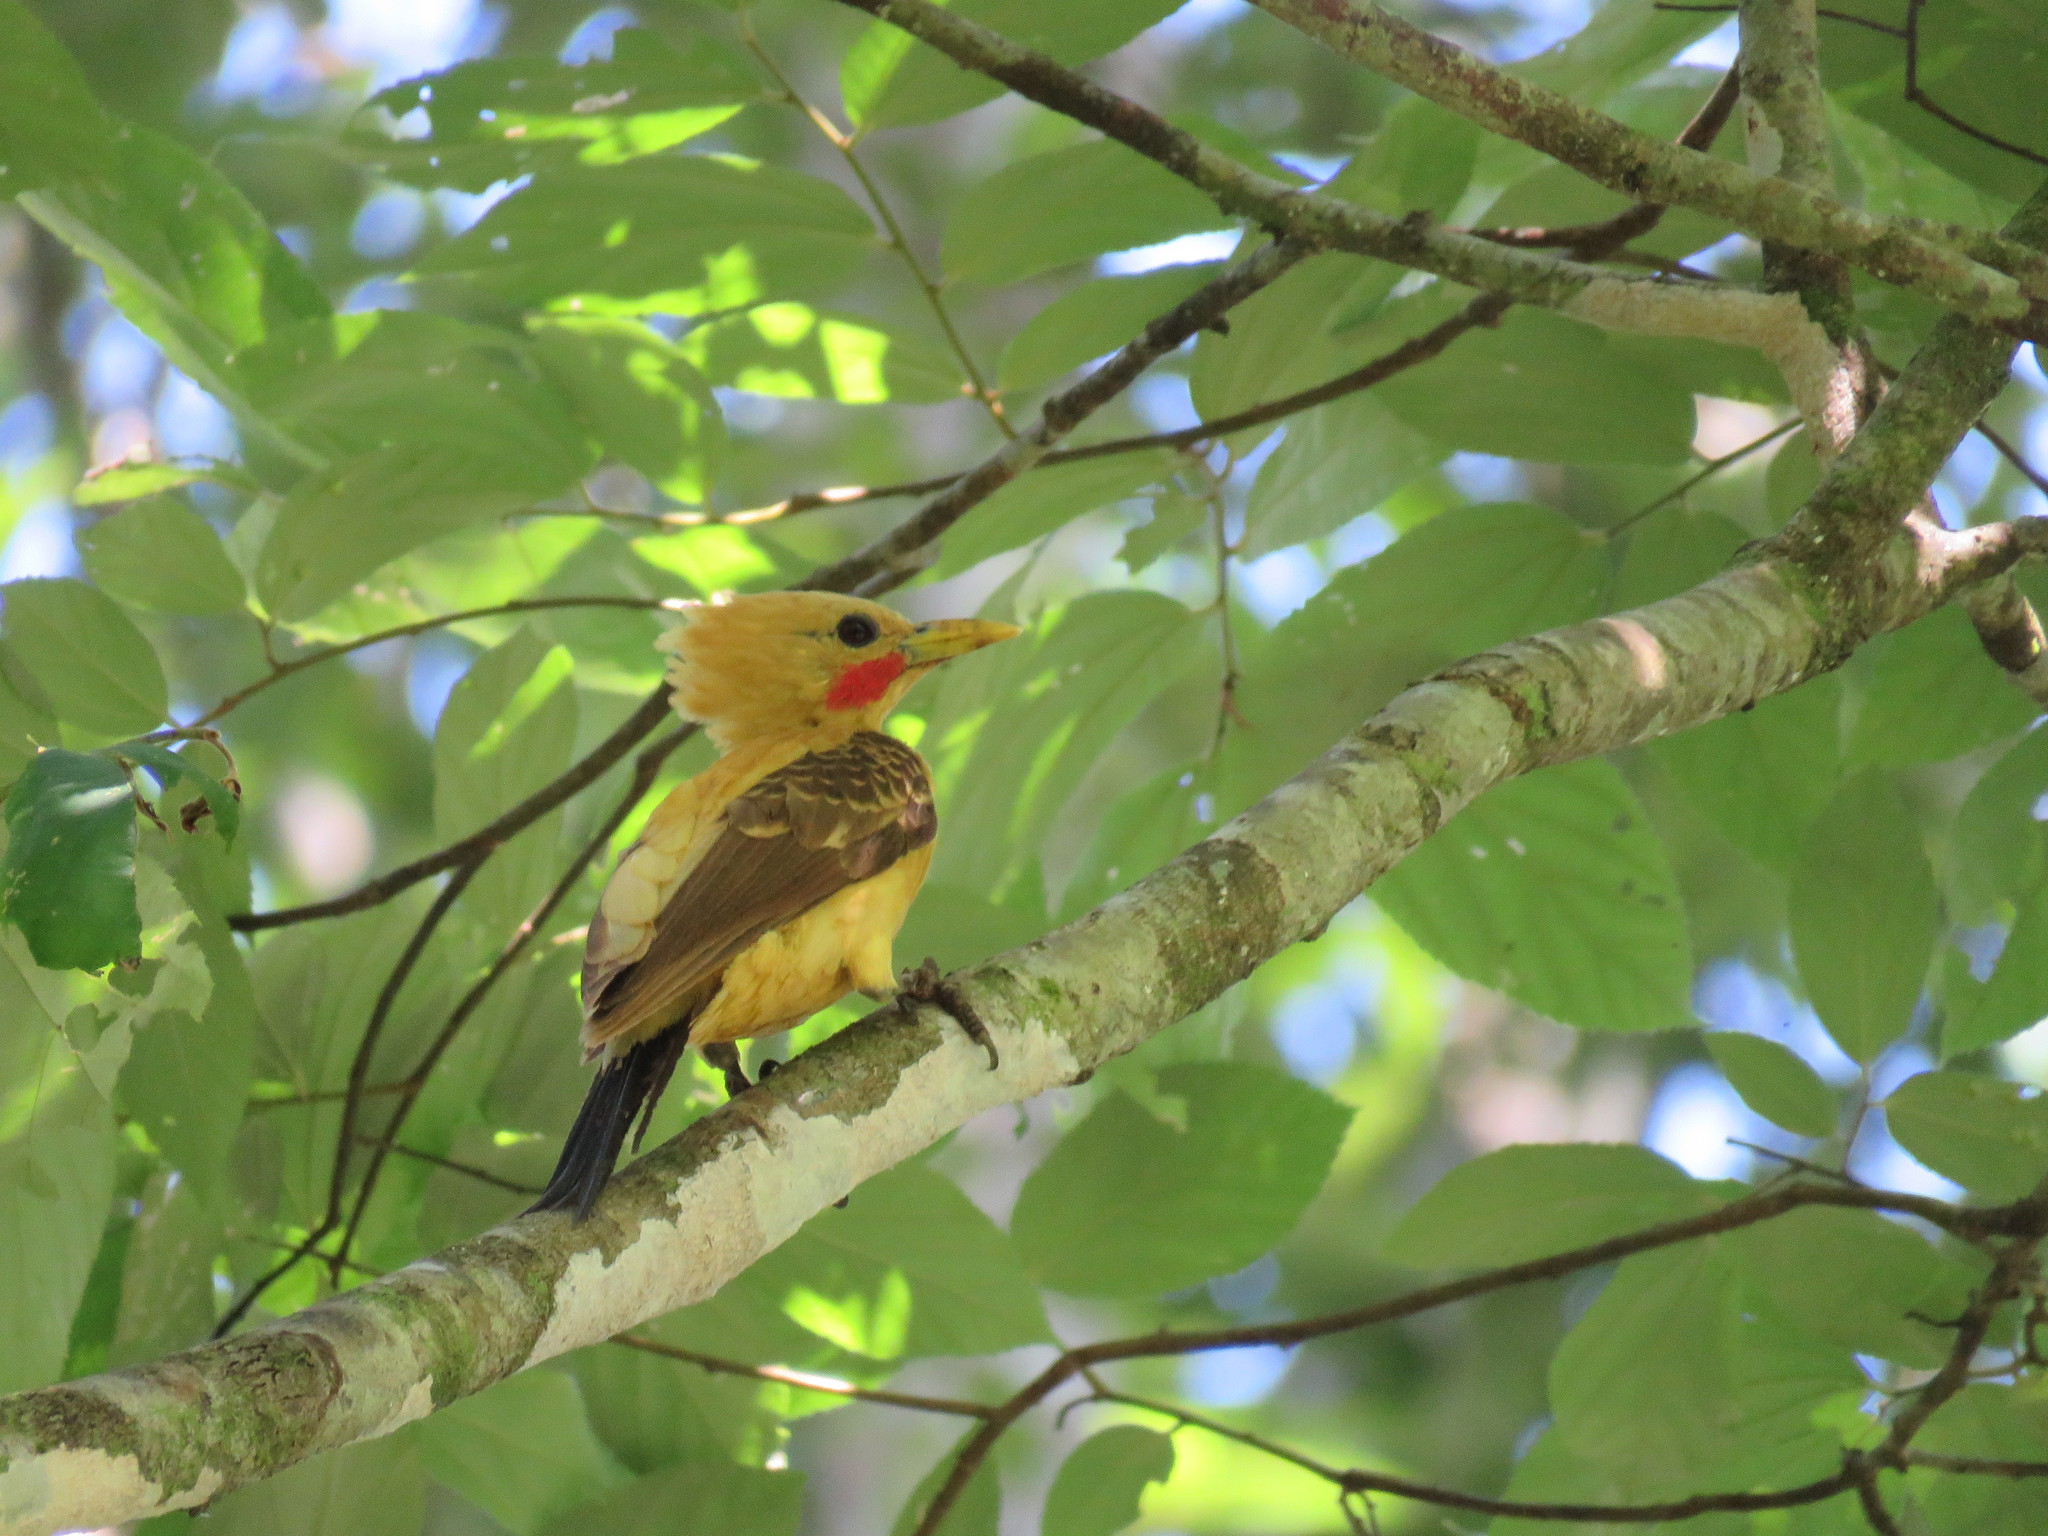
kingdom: Animalia
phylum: Chordata
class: Aves
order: Piciformes
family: Picidae
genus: Celeus
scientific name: Celeus flavus
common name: Cream-colored woodpecker
